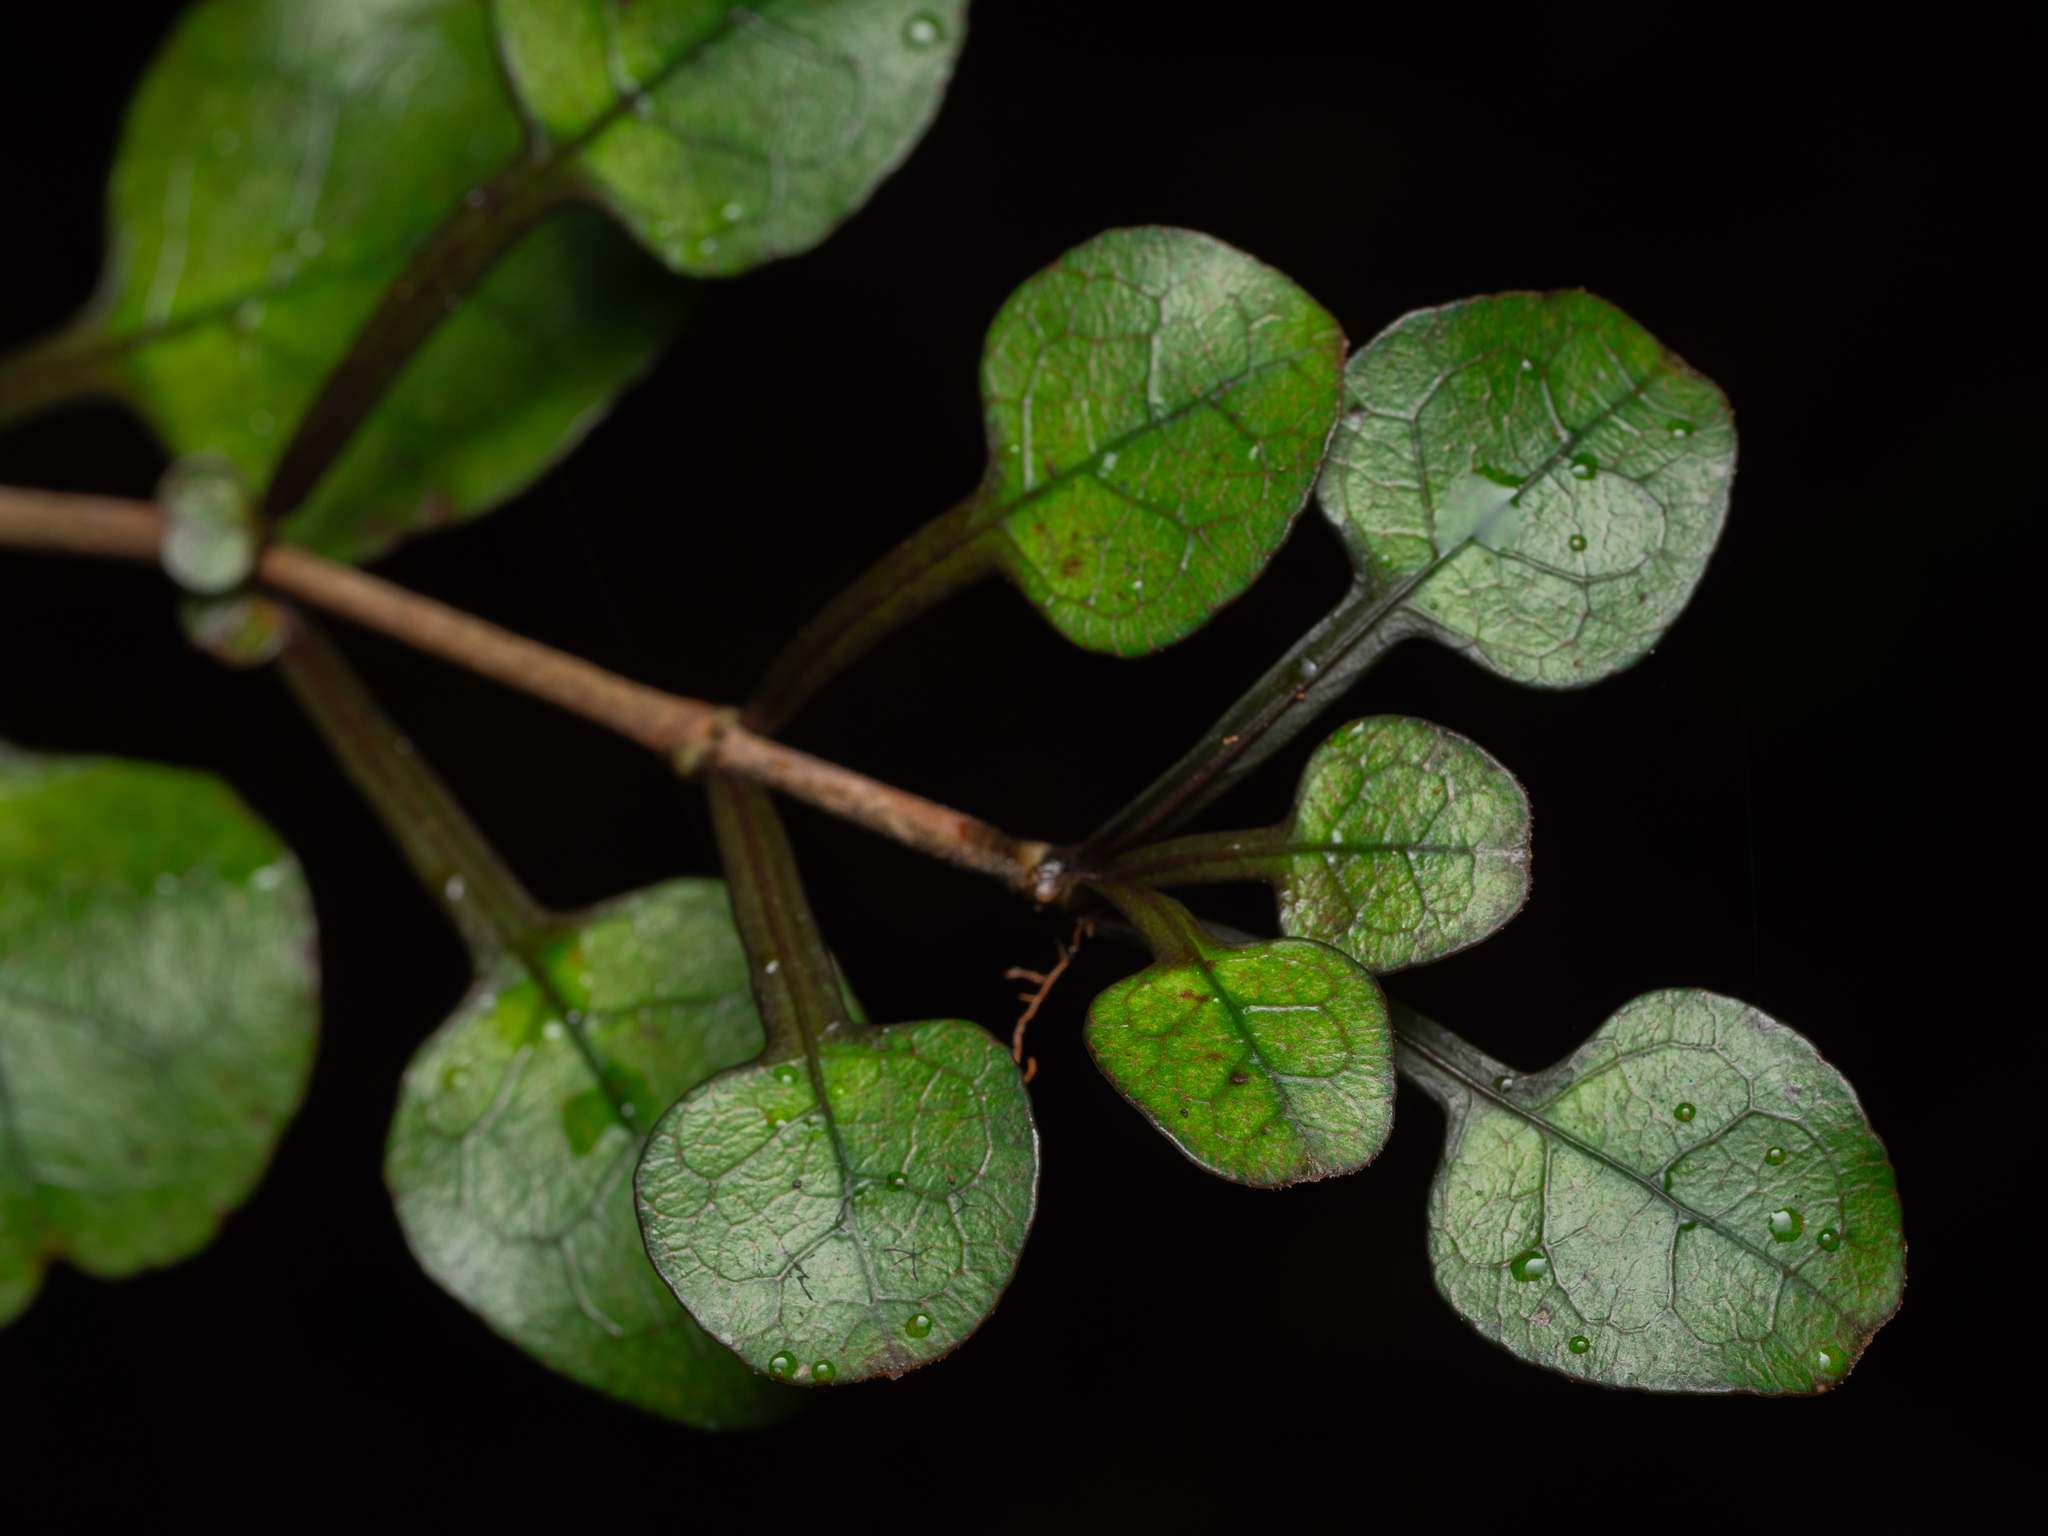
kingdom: Plantae
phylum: Tracheophyta
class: Magnoliopsida
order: Gentianales
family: Rubiaceae
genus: Coprosma
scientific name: Coprosma spathulata
